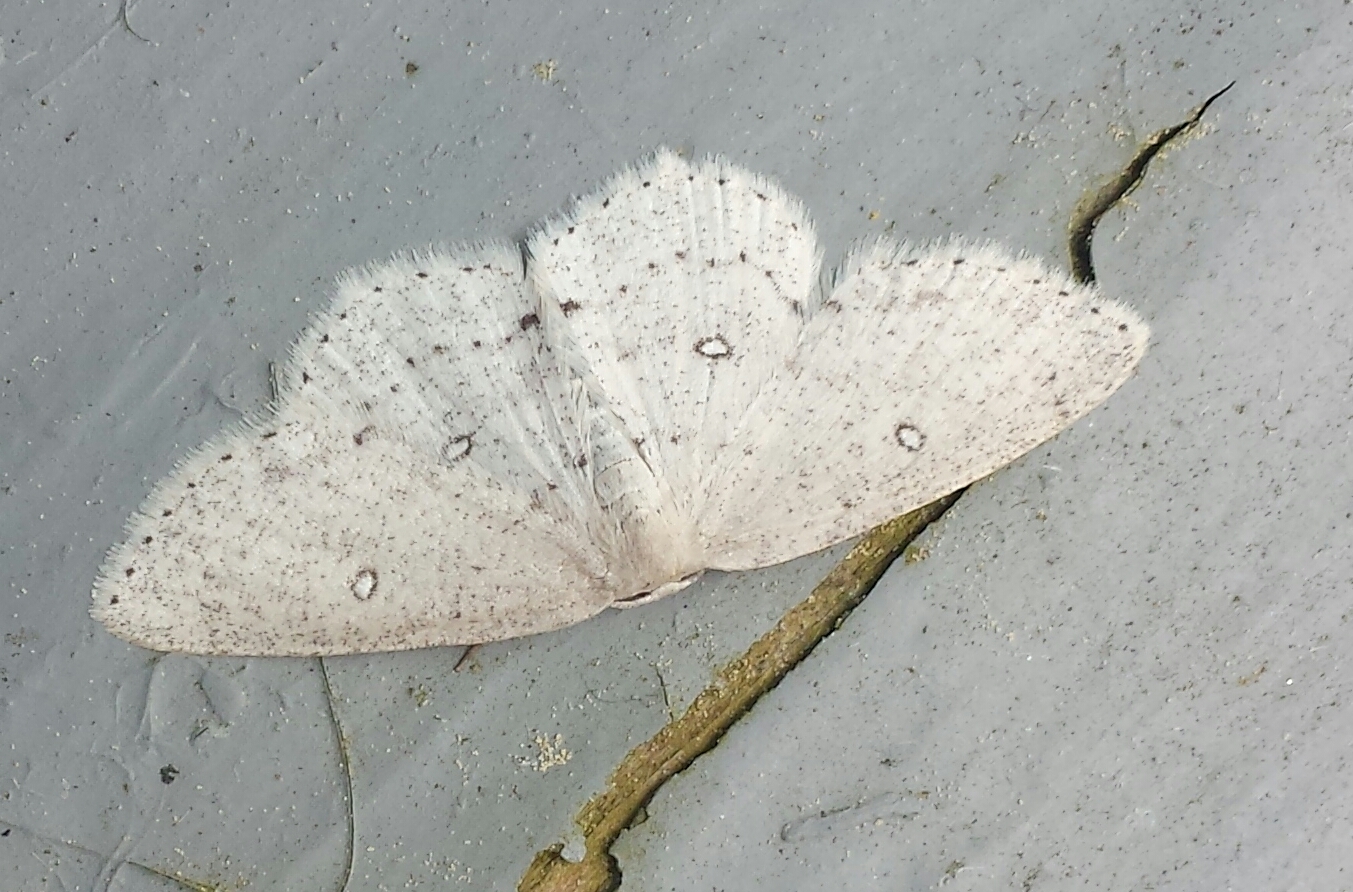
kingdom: Animalia
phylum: Arthropoda
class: Insecta
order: Lepidoptera
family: Geometridae
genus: Cyclophora
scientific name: Cyclophora pendulinaria
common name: Sweet fern geometer
